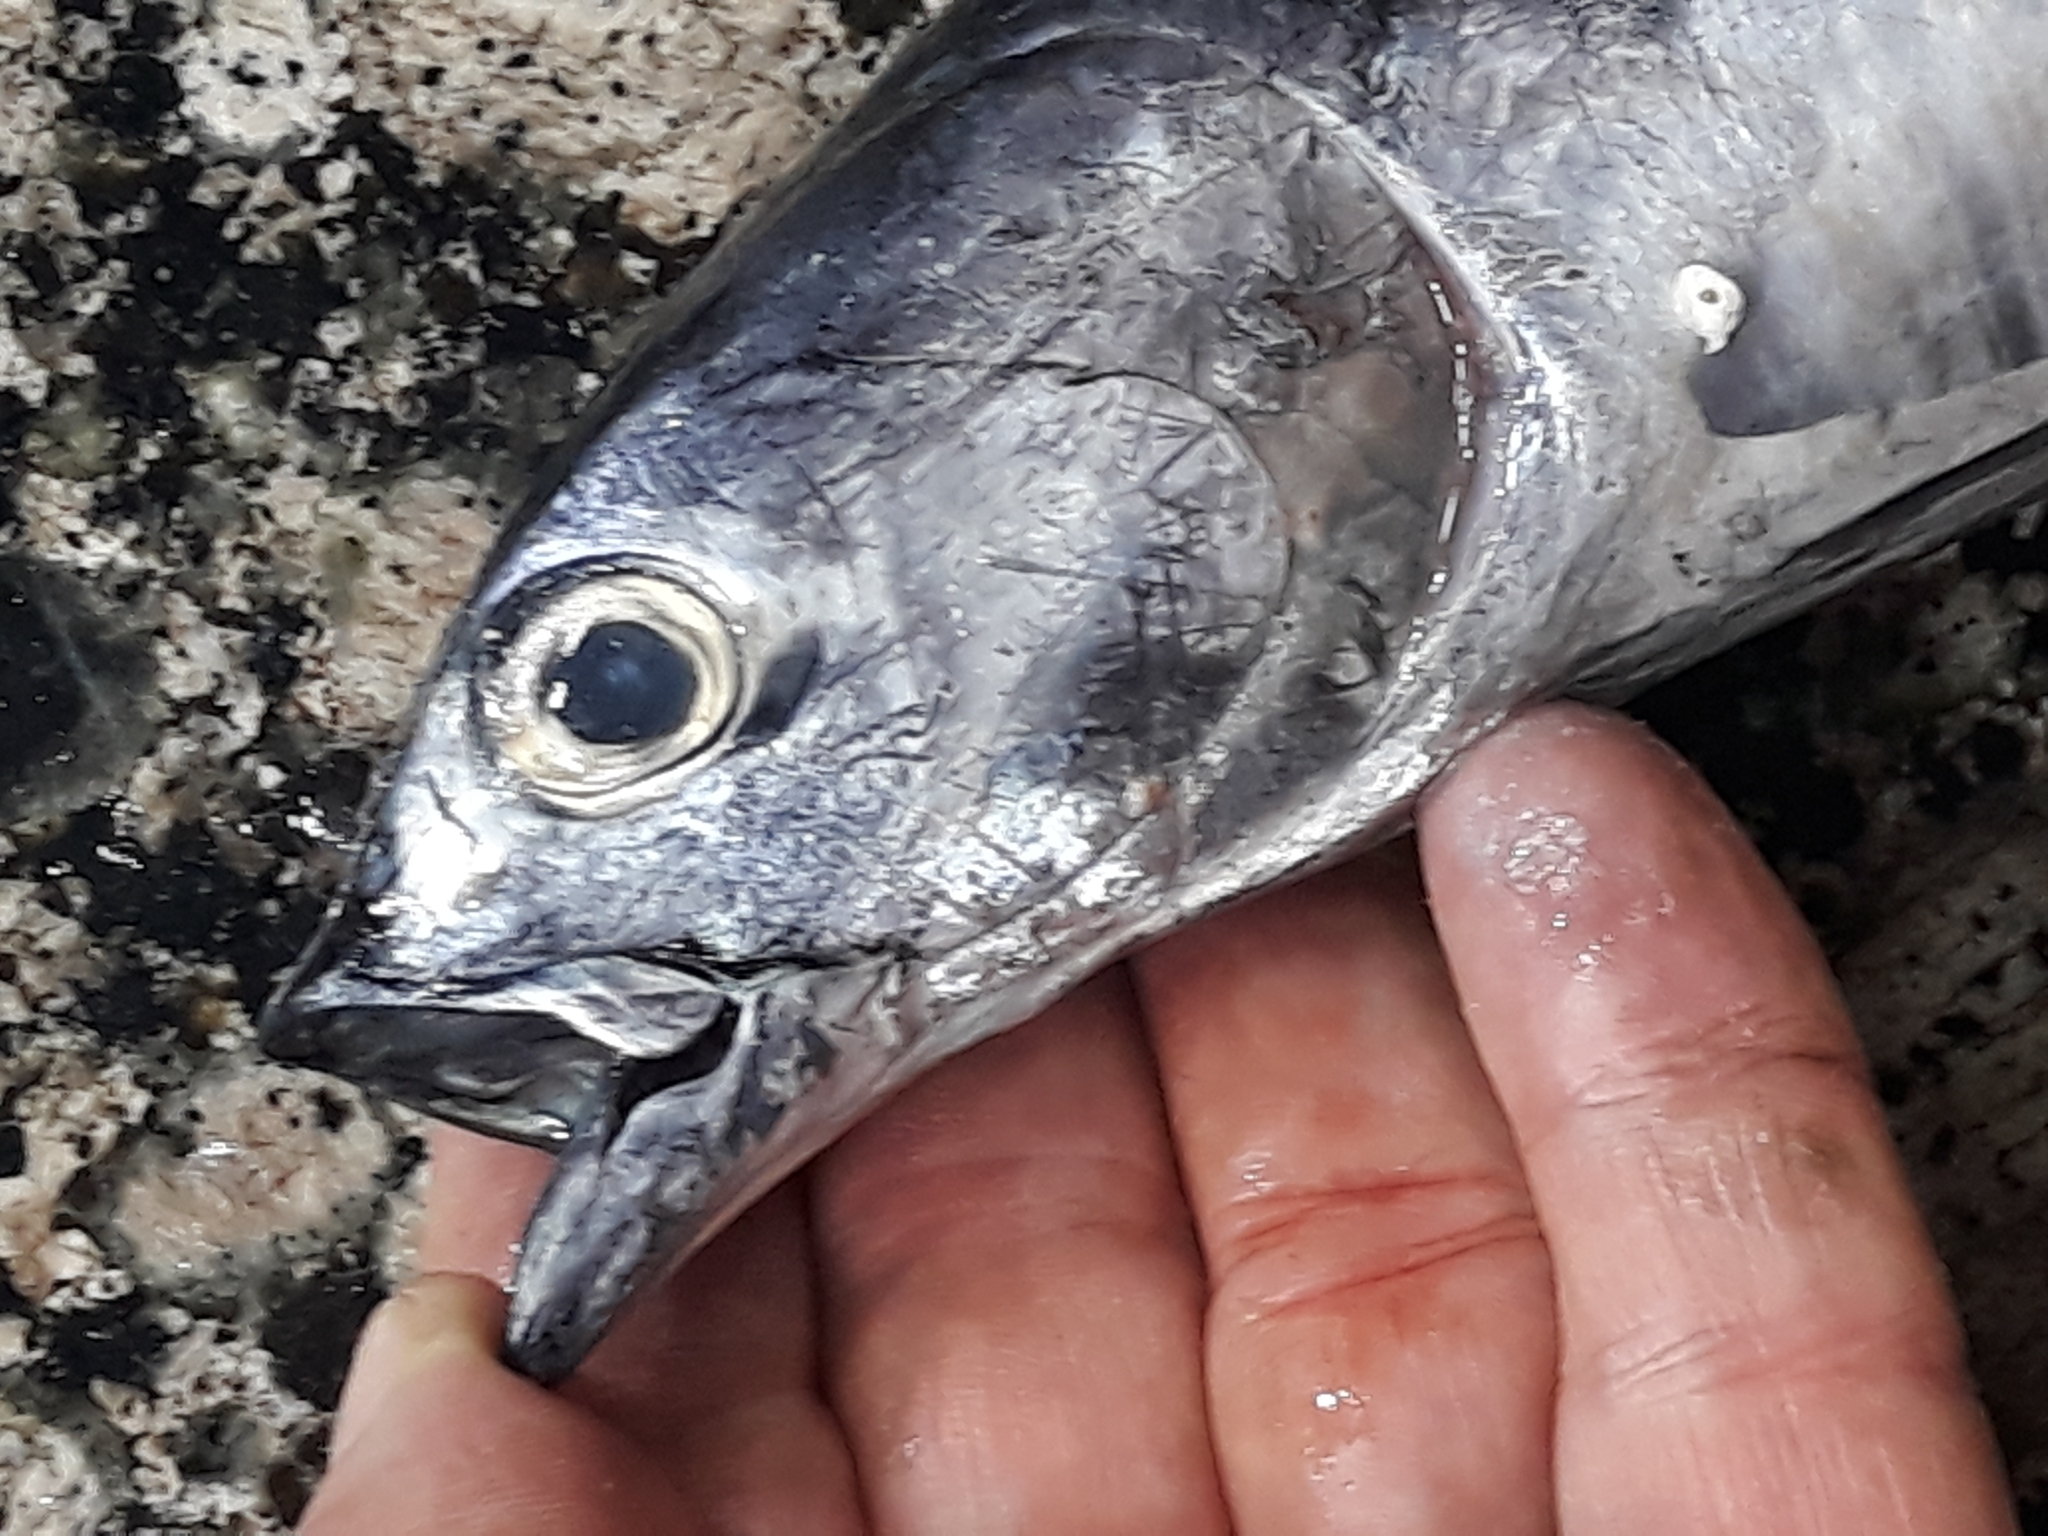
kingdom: Animalia
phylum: Chordata
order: Perciformes
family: Scombridae
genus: Auxis
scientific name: Auxis rochei
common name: Bullet tuna
